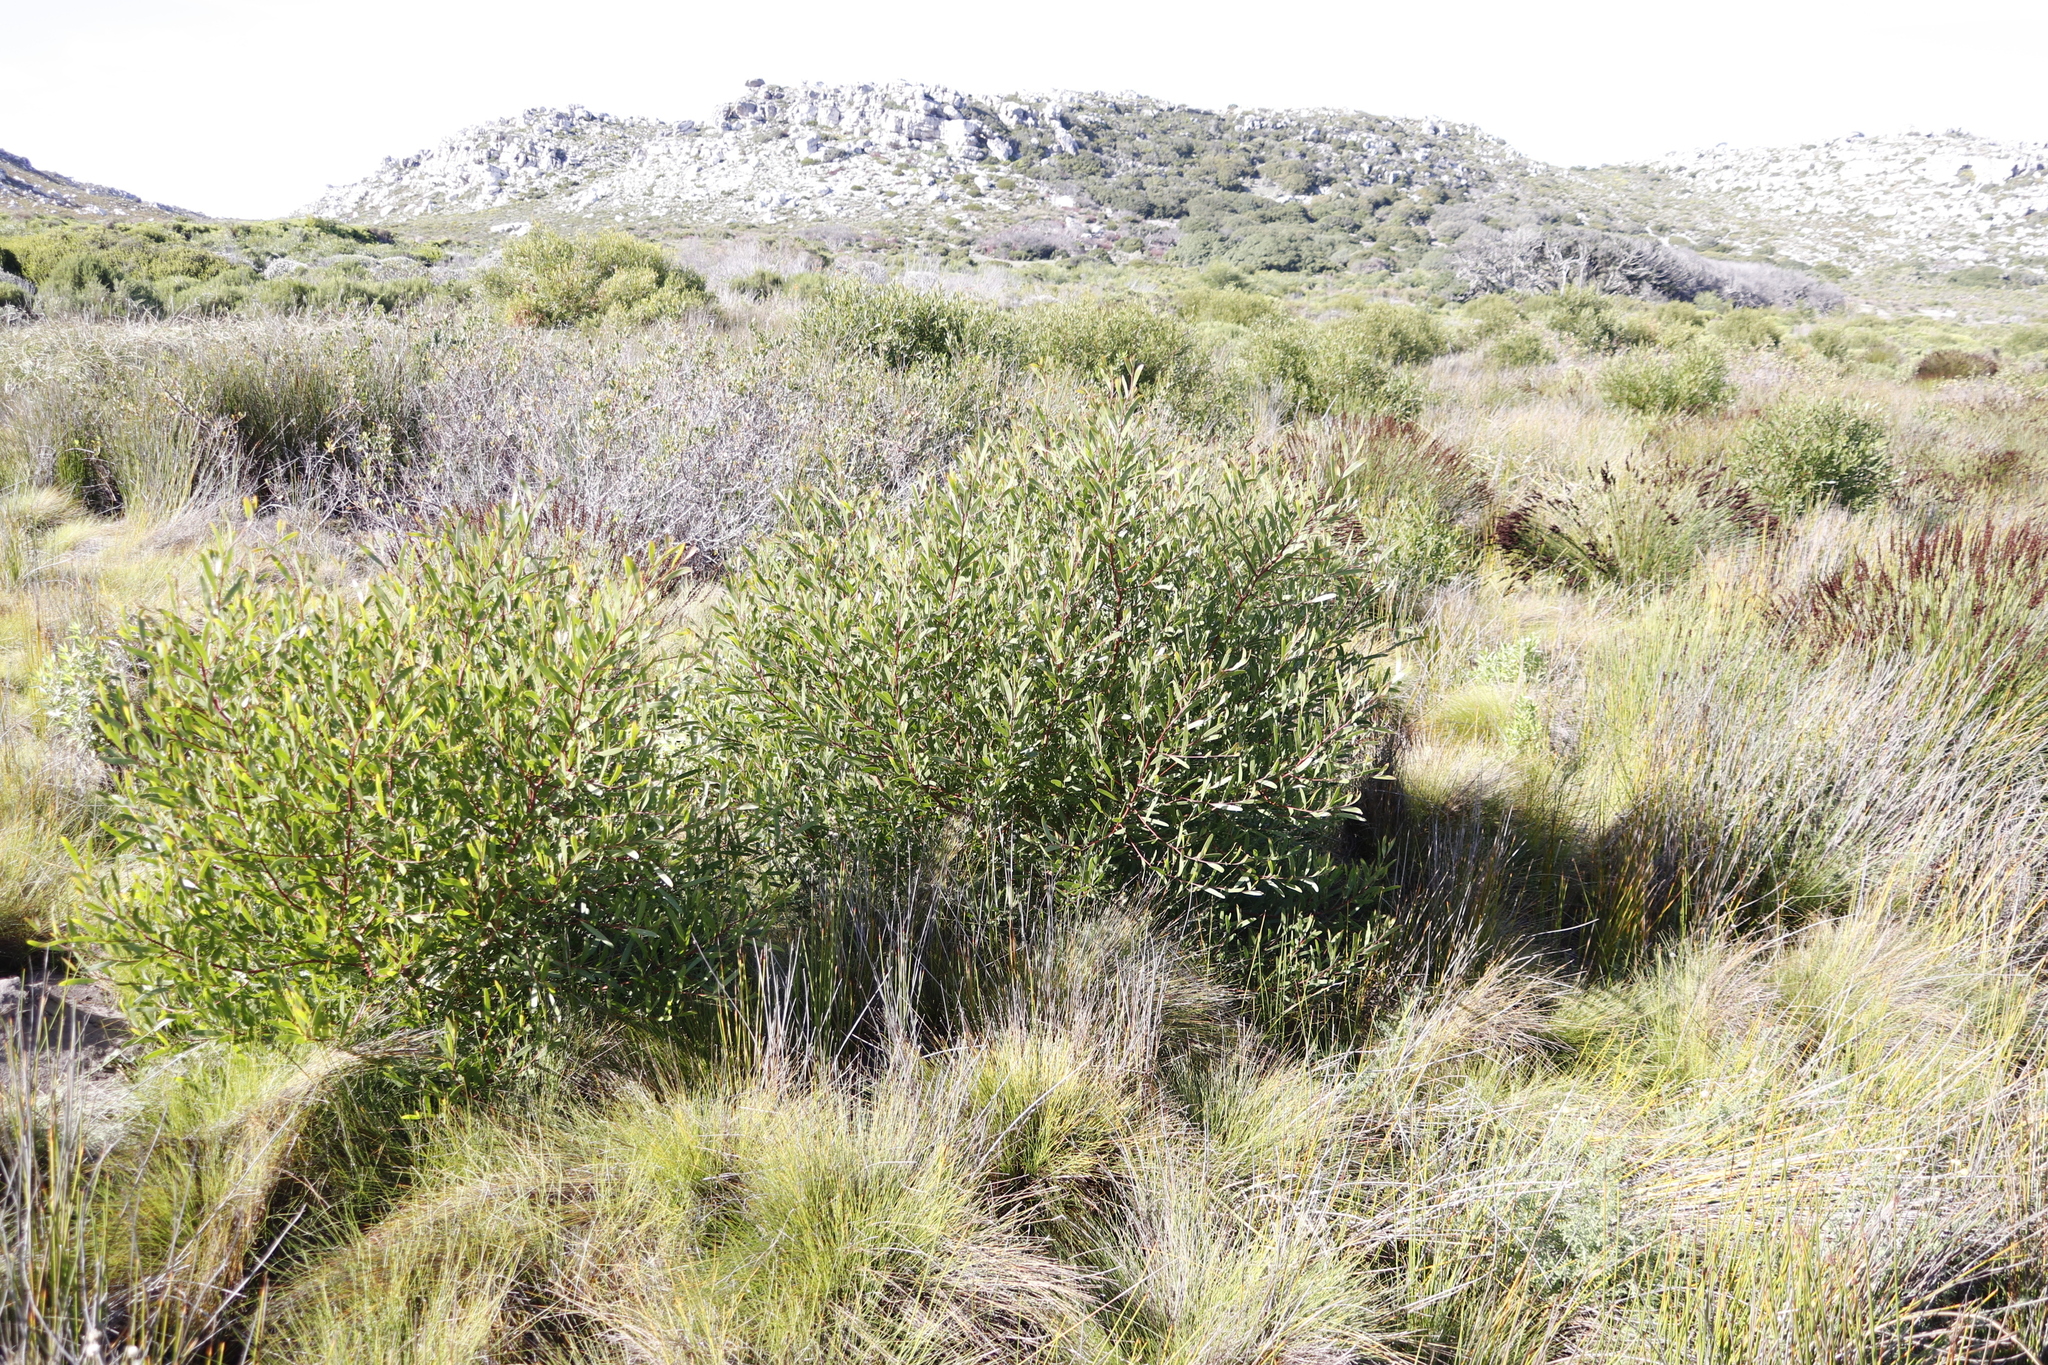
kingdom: Plantae
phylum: Tracheophyta
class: Magnoliopsida
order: Fabales
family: Fabaceae
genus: Acacia
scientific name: Acacia cyclops
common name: Coastal wattle
